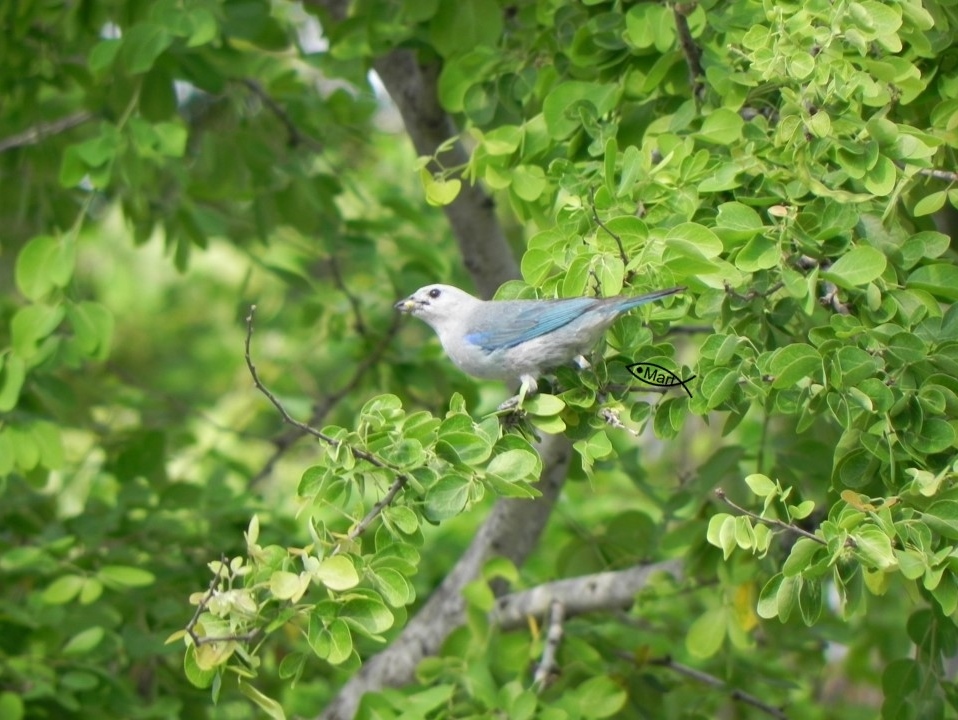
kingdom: Animalia
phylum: Chordata
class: Aves
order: Passeriformes
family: Thraupidae
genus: Thraupis
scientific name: Thraupis episcopus
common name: Blue-grey tanager
